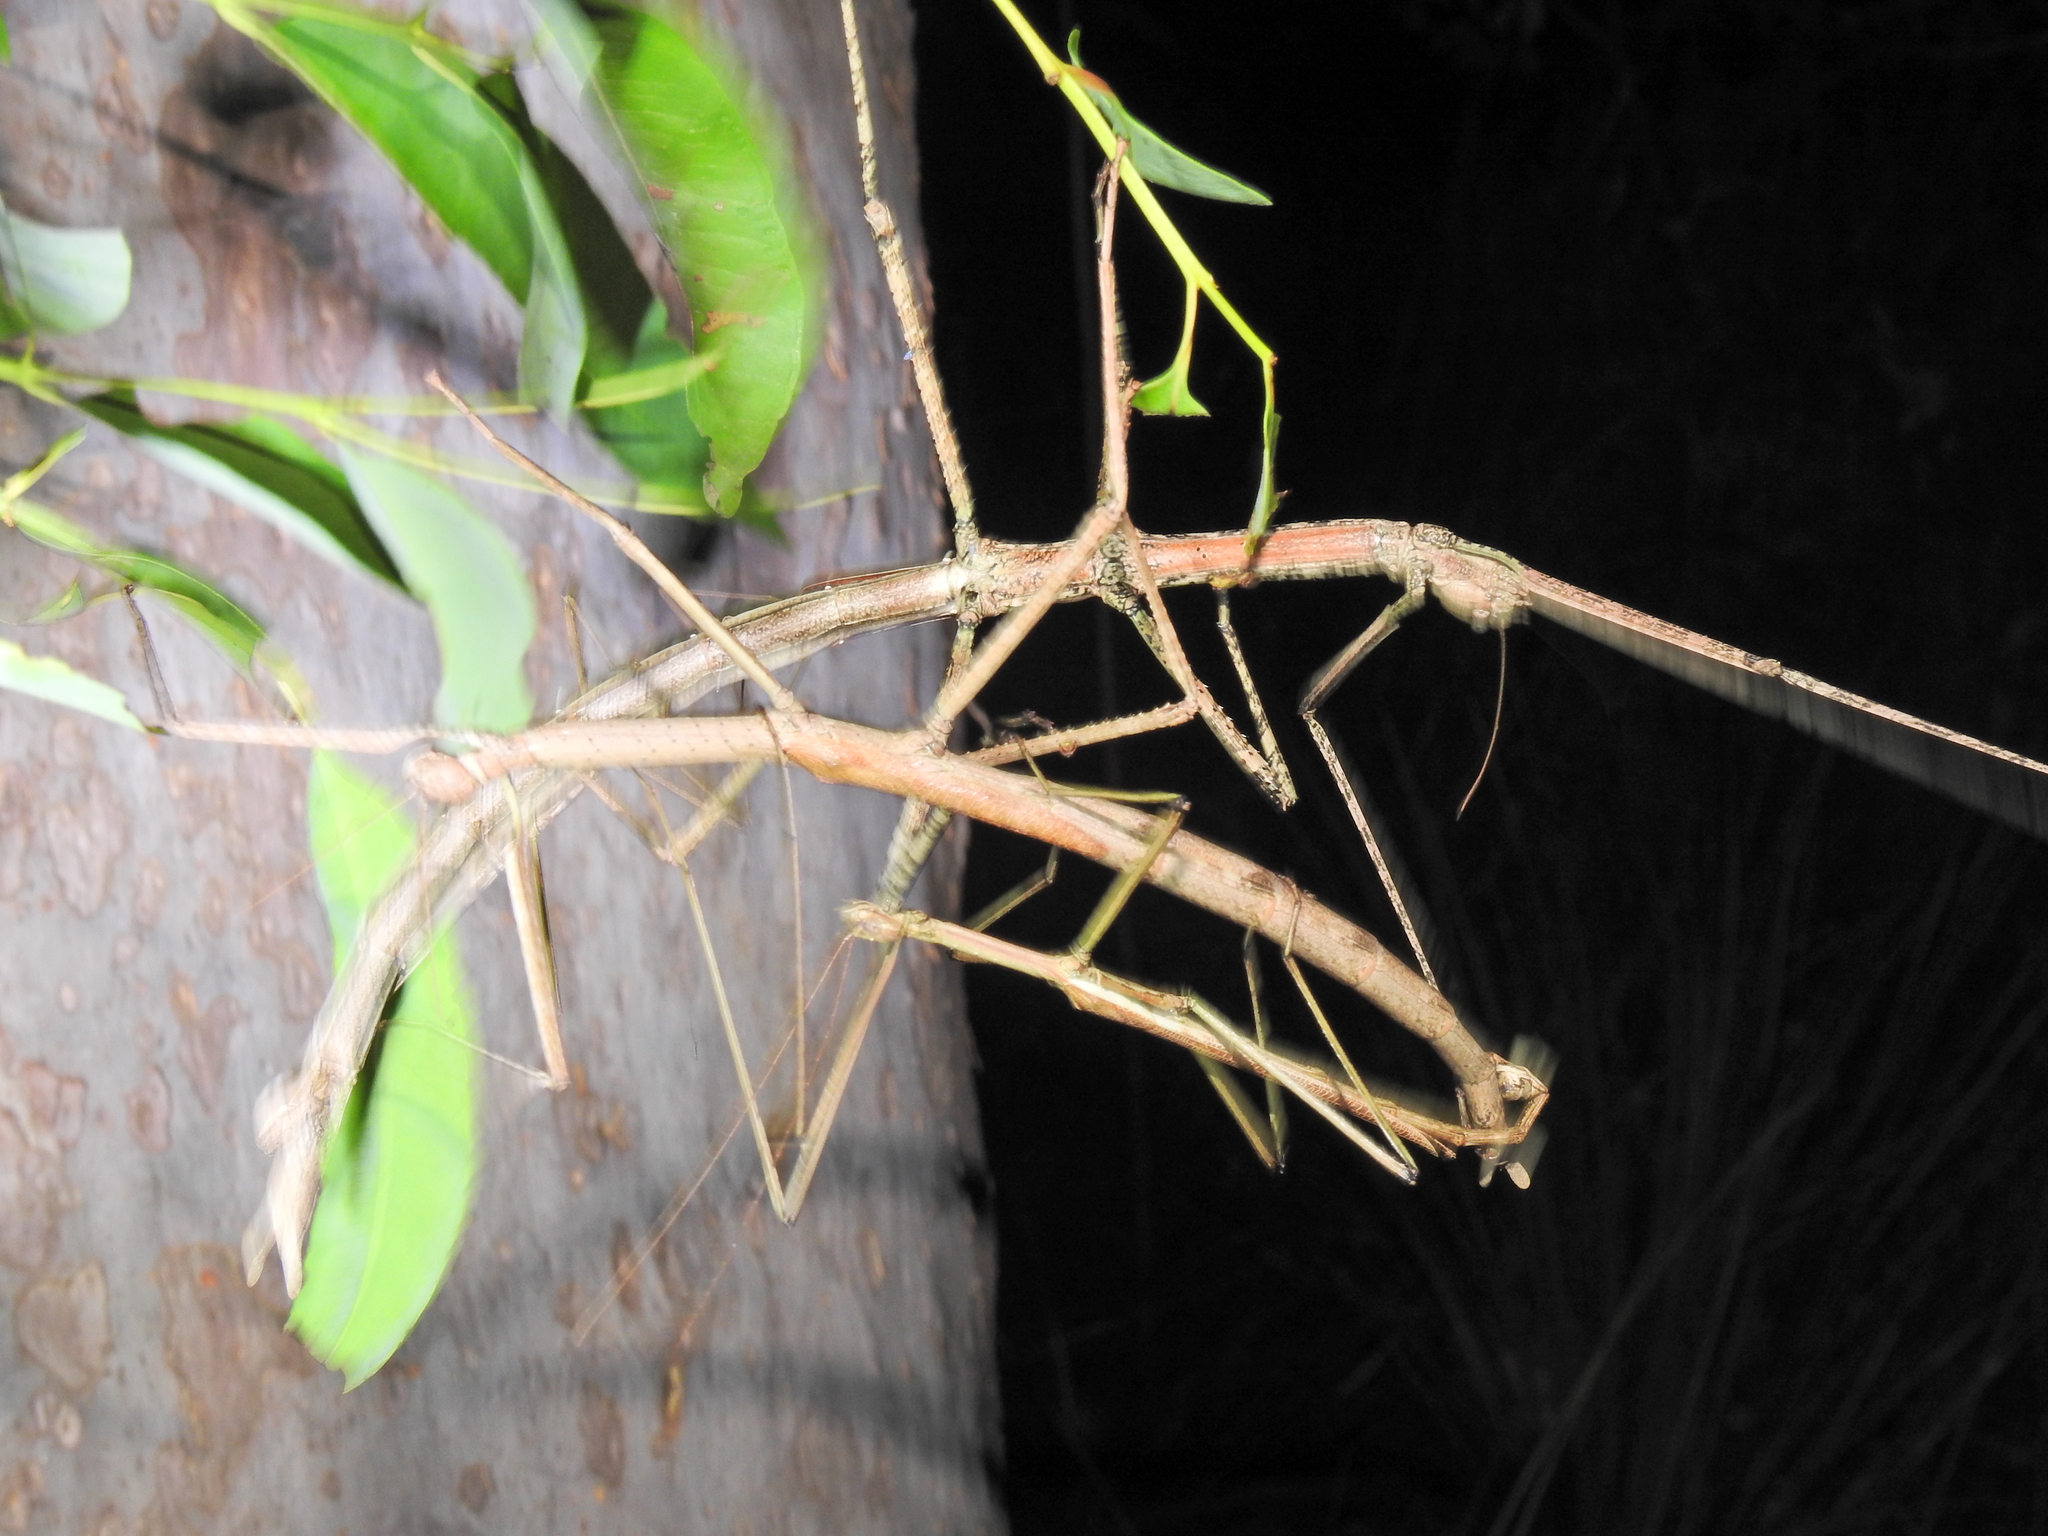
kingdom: Animalia
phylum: Arthropoda
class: Insecta
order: Phasmida
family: Phasmatidae
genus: Anchiale
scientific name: Anchiale austrotessulata
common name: Tessellated stick-insect
